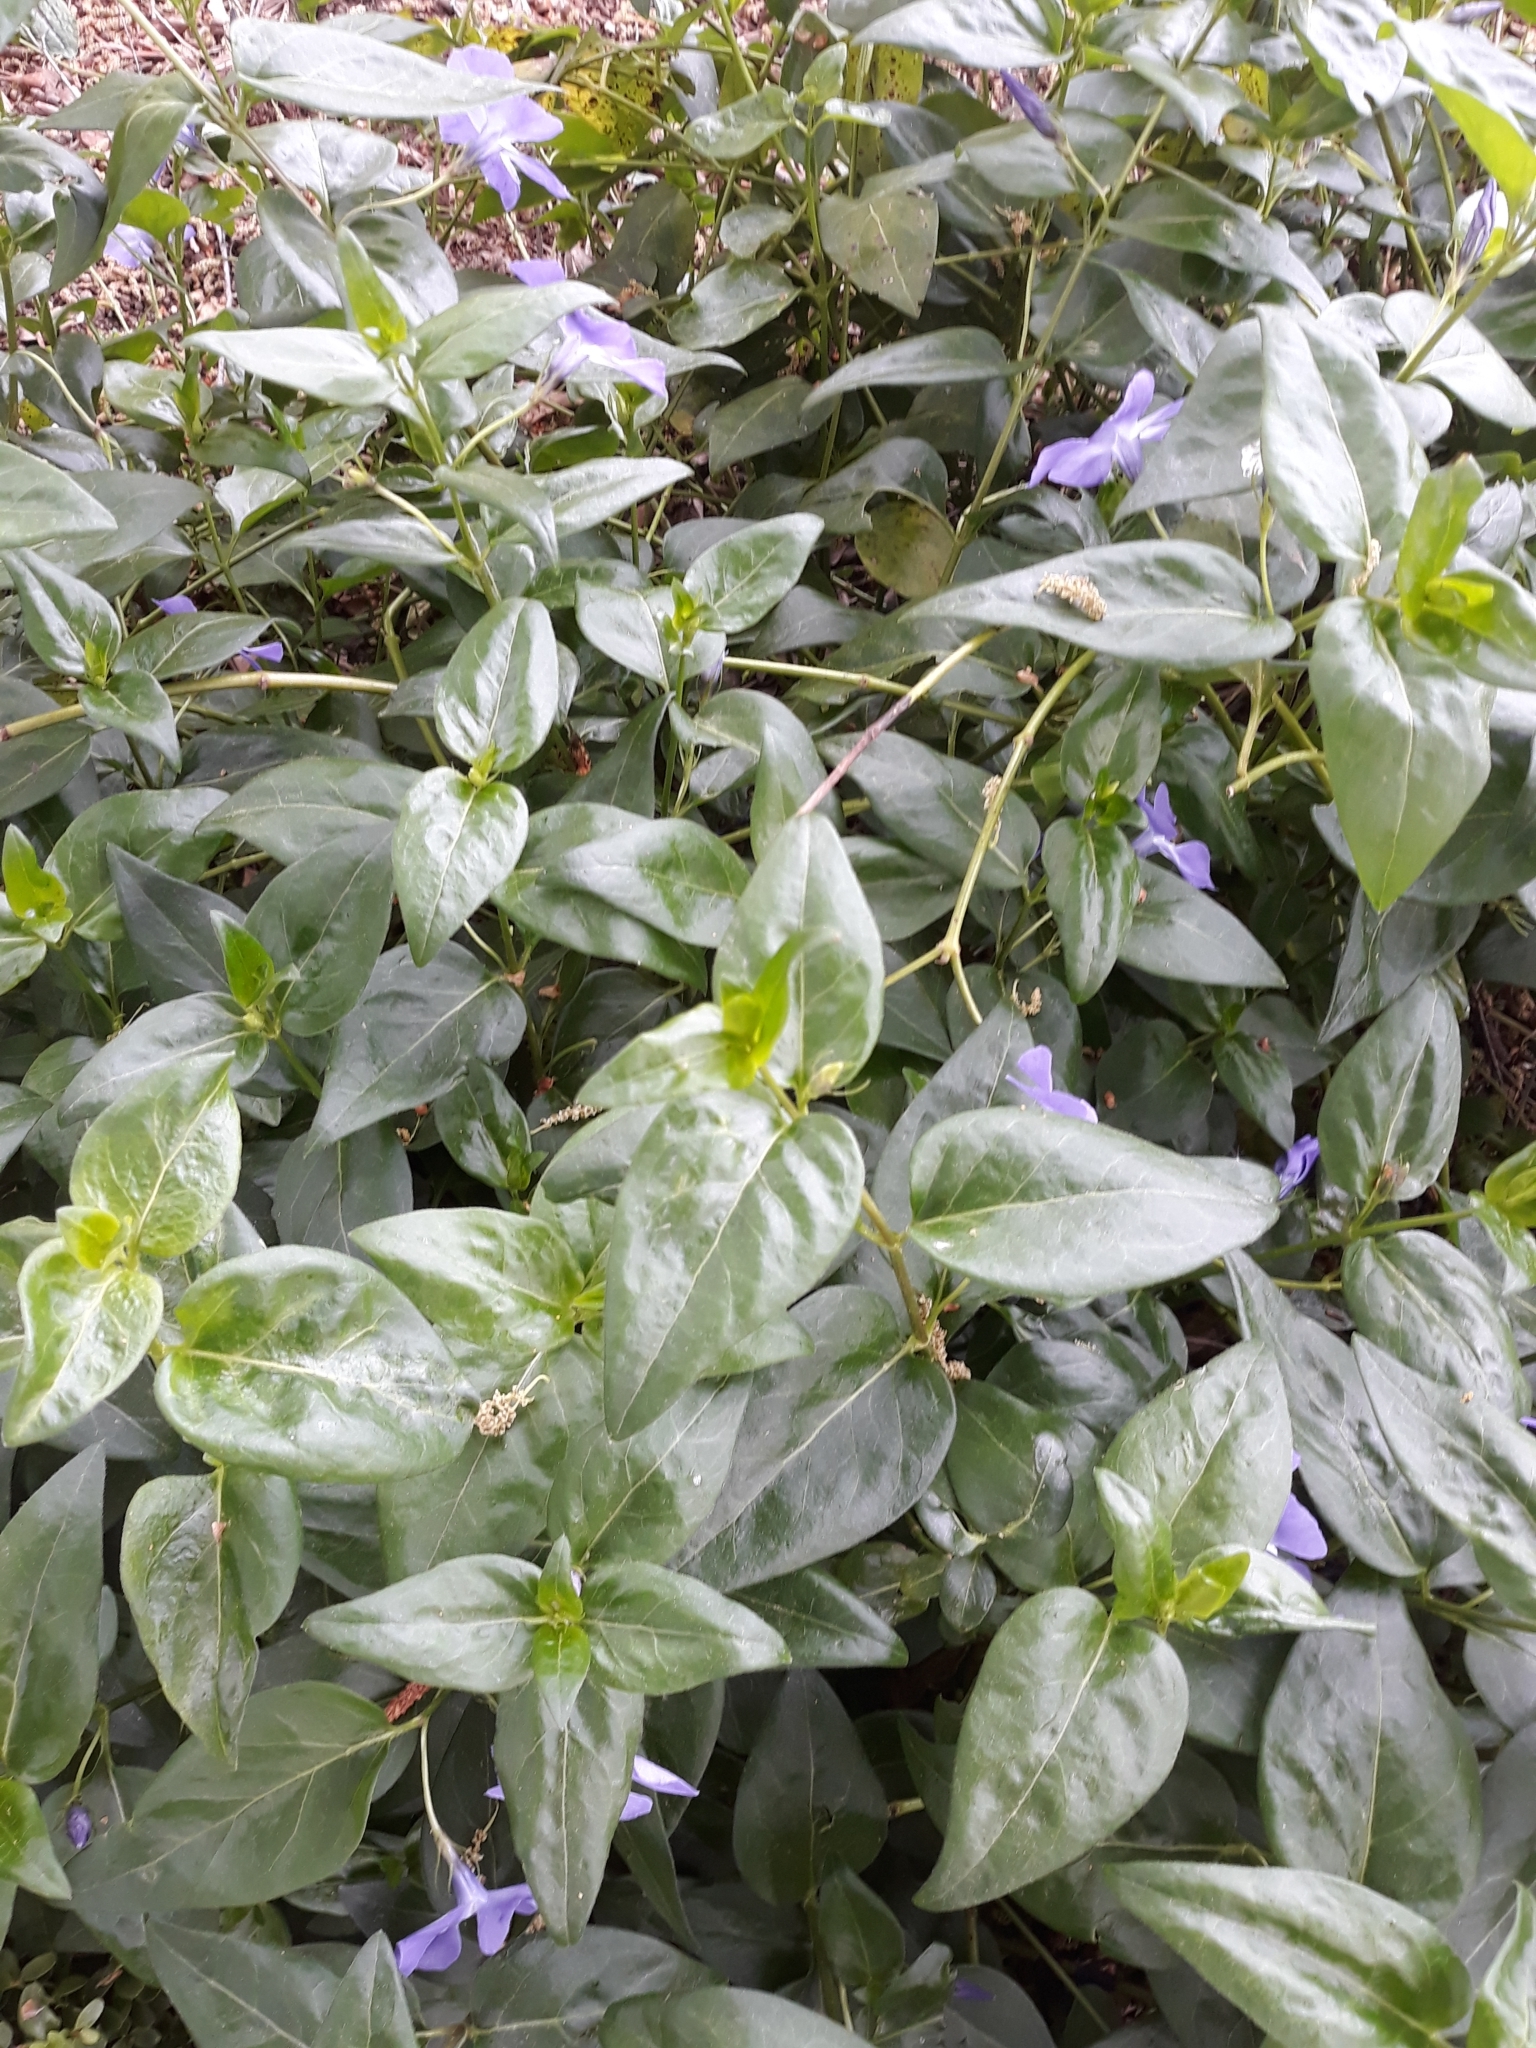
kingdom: Plantae
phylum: Tracheophyta
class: Magnoliopsida
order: Gentianales
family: Apocynaceae
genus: Vinca
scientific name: Vinca major
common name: Greater periwinkle
